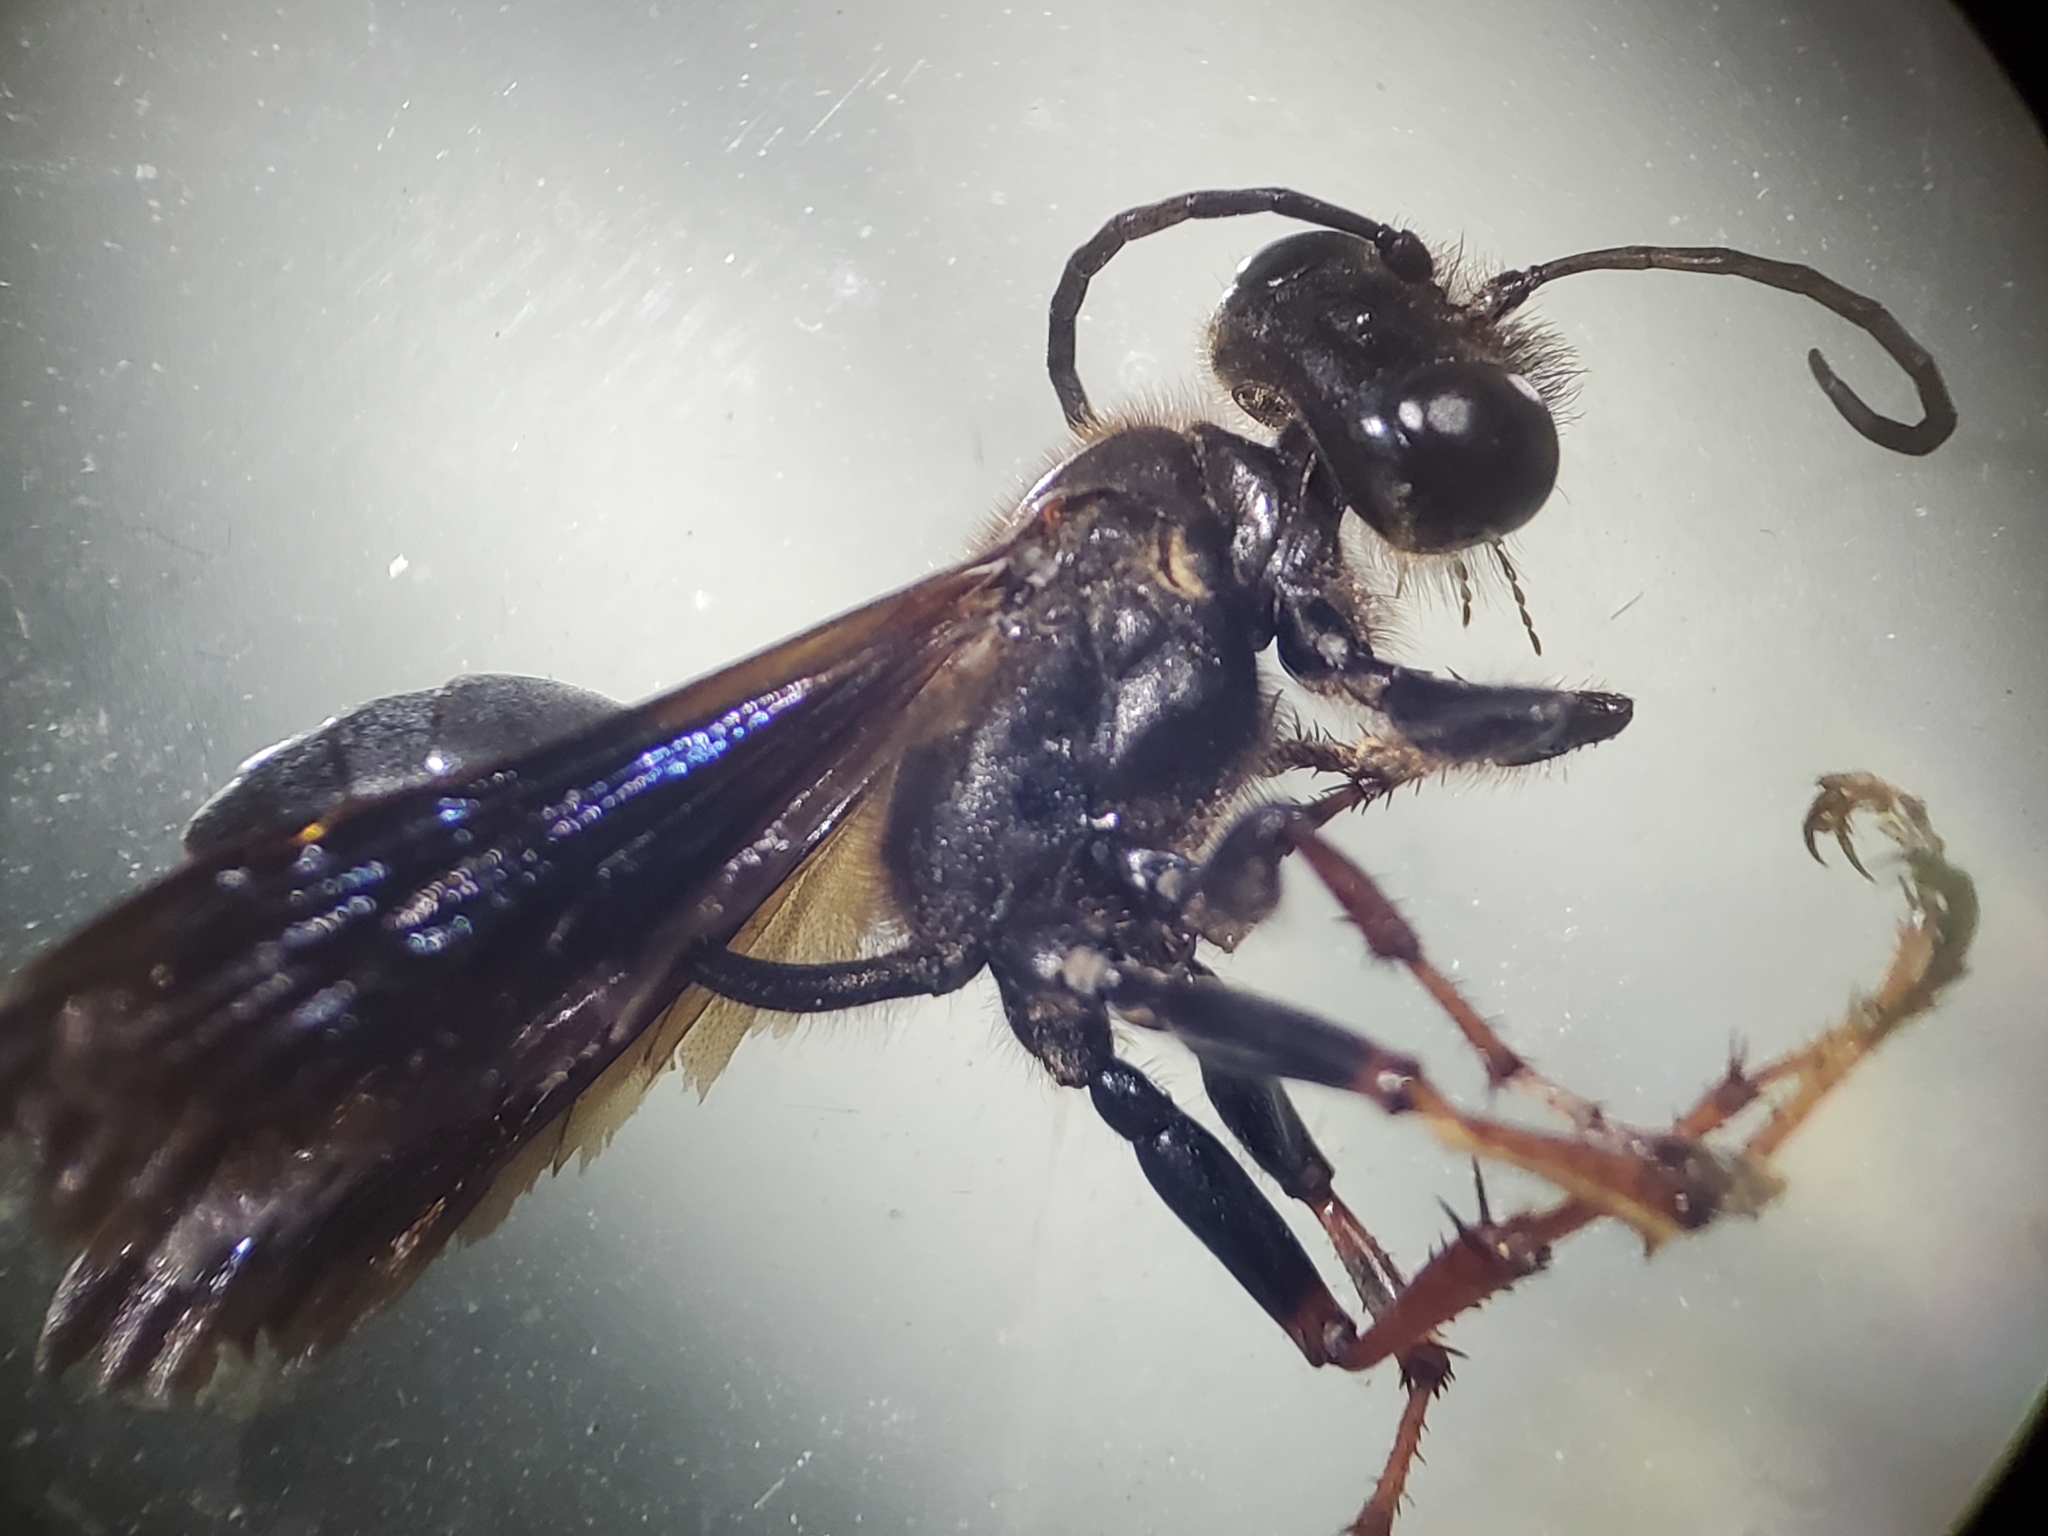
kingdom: Animalia
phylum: Arthropoda
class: Insecta
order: Hymenoptera
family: Sphecidae
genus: Isodontia
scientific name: Isodontia auripes
